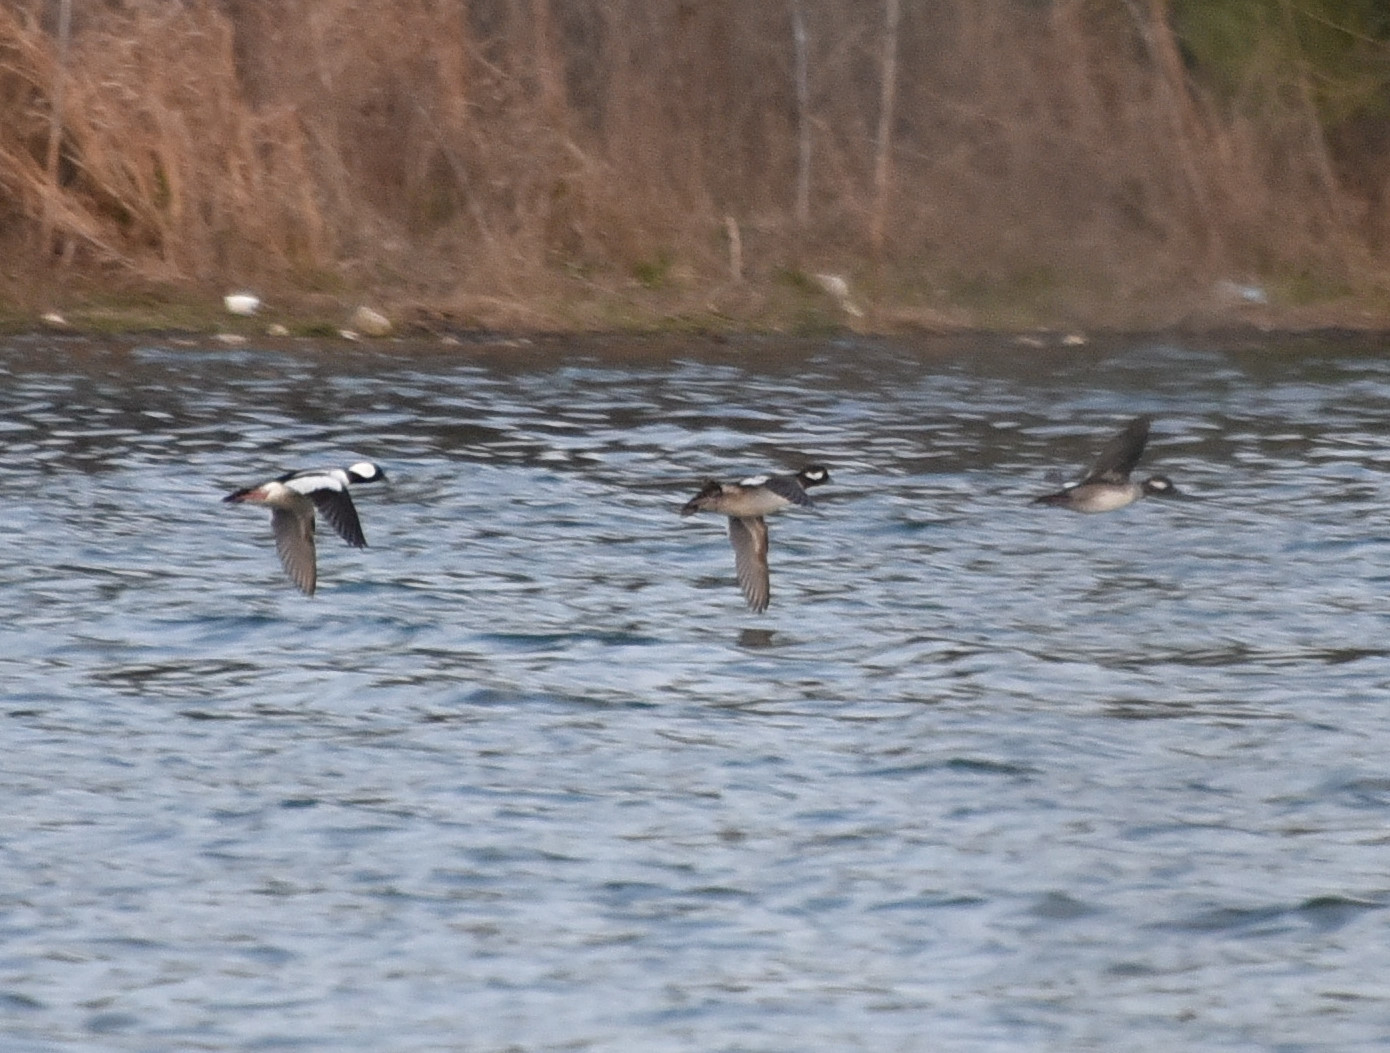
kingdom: Animalia
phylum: Chordata
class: Aves
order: Anseriformes
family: Anatidae
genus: Bucephala
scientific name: Bucephala albeola
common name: Bufflehead
